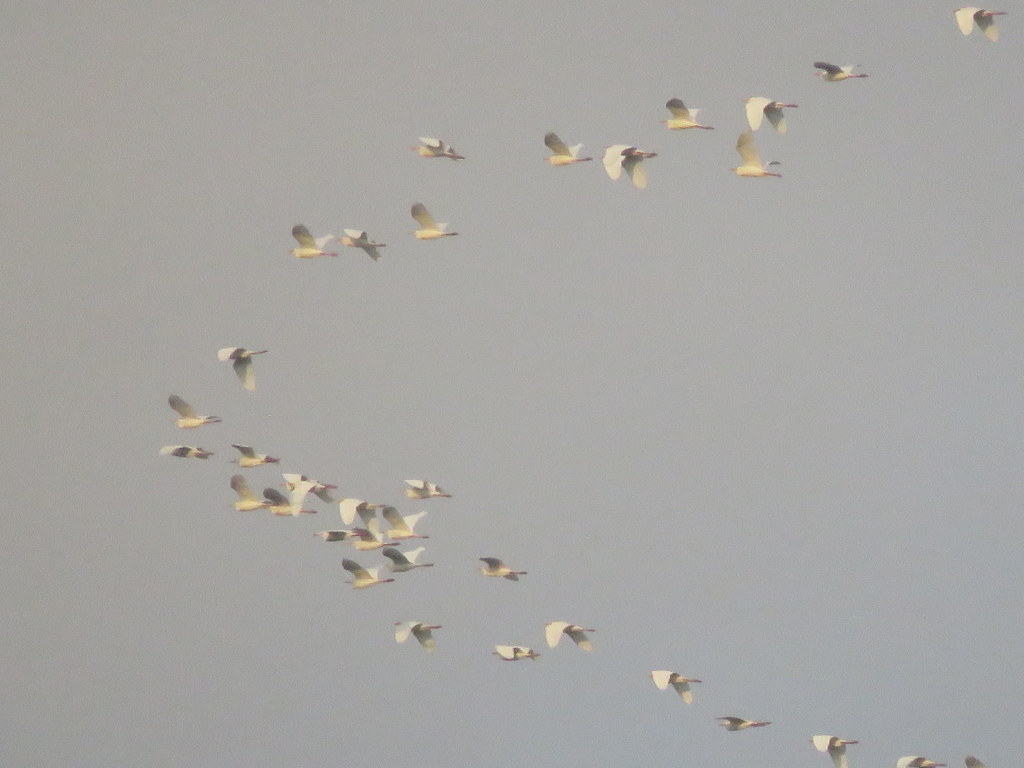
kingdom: Animalia
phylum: Chordata
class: Aves
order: Pelecaniformes
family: Ardeidae
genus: Bubulcus
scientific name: Bubulcus ibis
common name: Cattle egret
